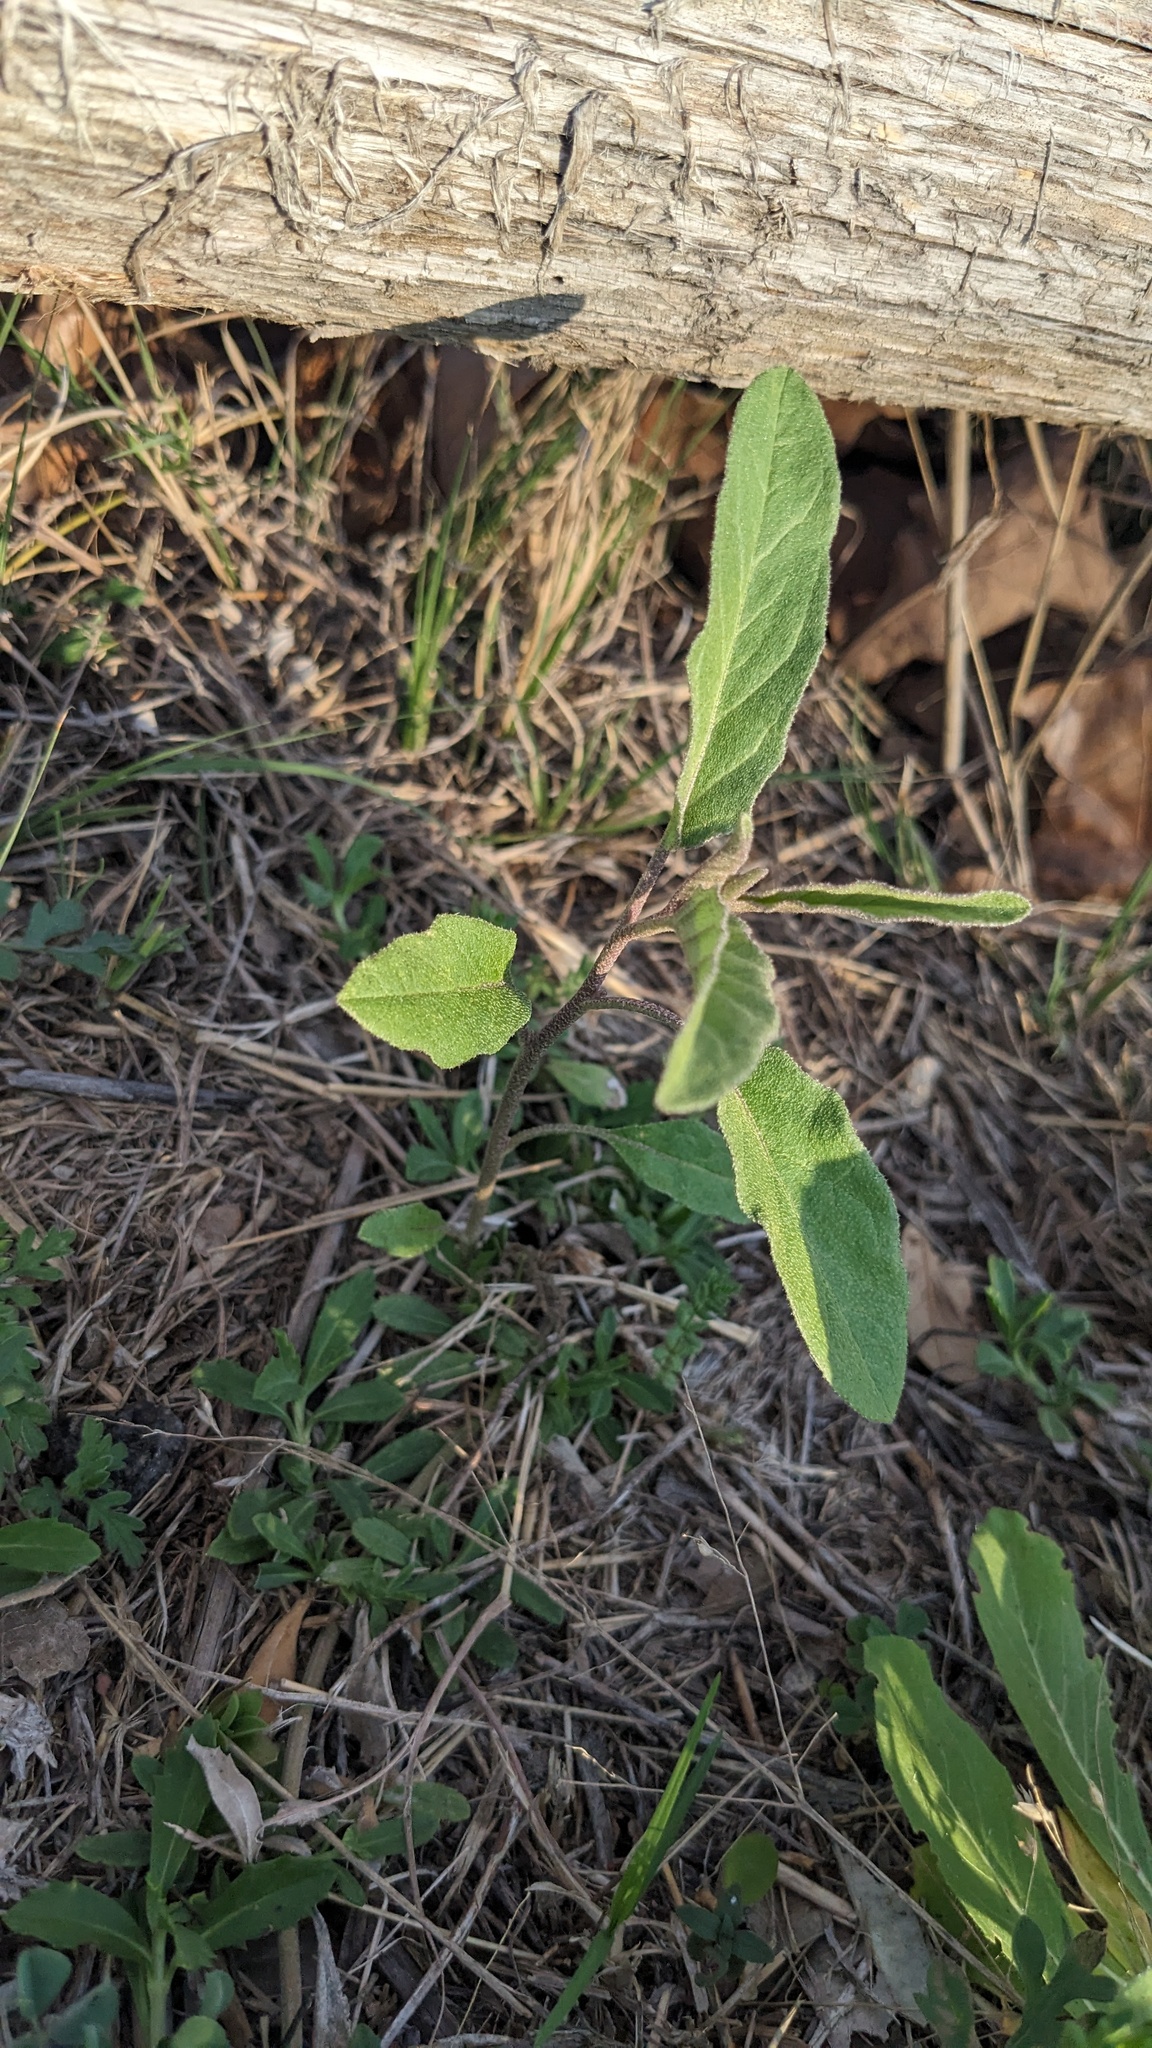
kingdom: Plantae
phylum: Tracheophyta
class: Magnoliopsida
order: Solanales
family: Solanaceae
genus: Solanum
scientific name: Solanum elaeagnifolium
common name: Silverleaf nightshade
